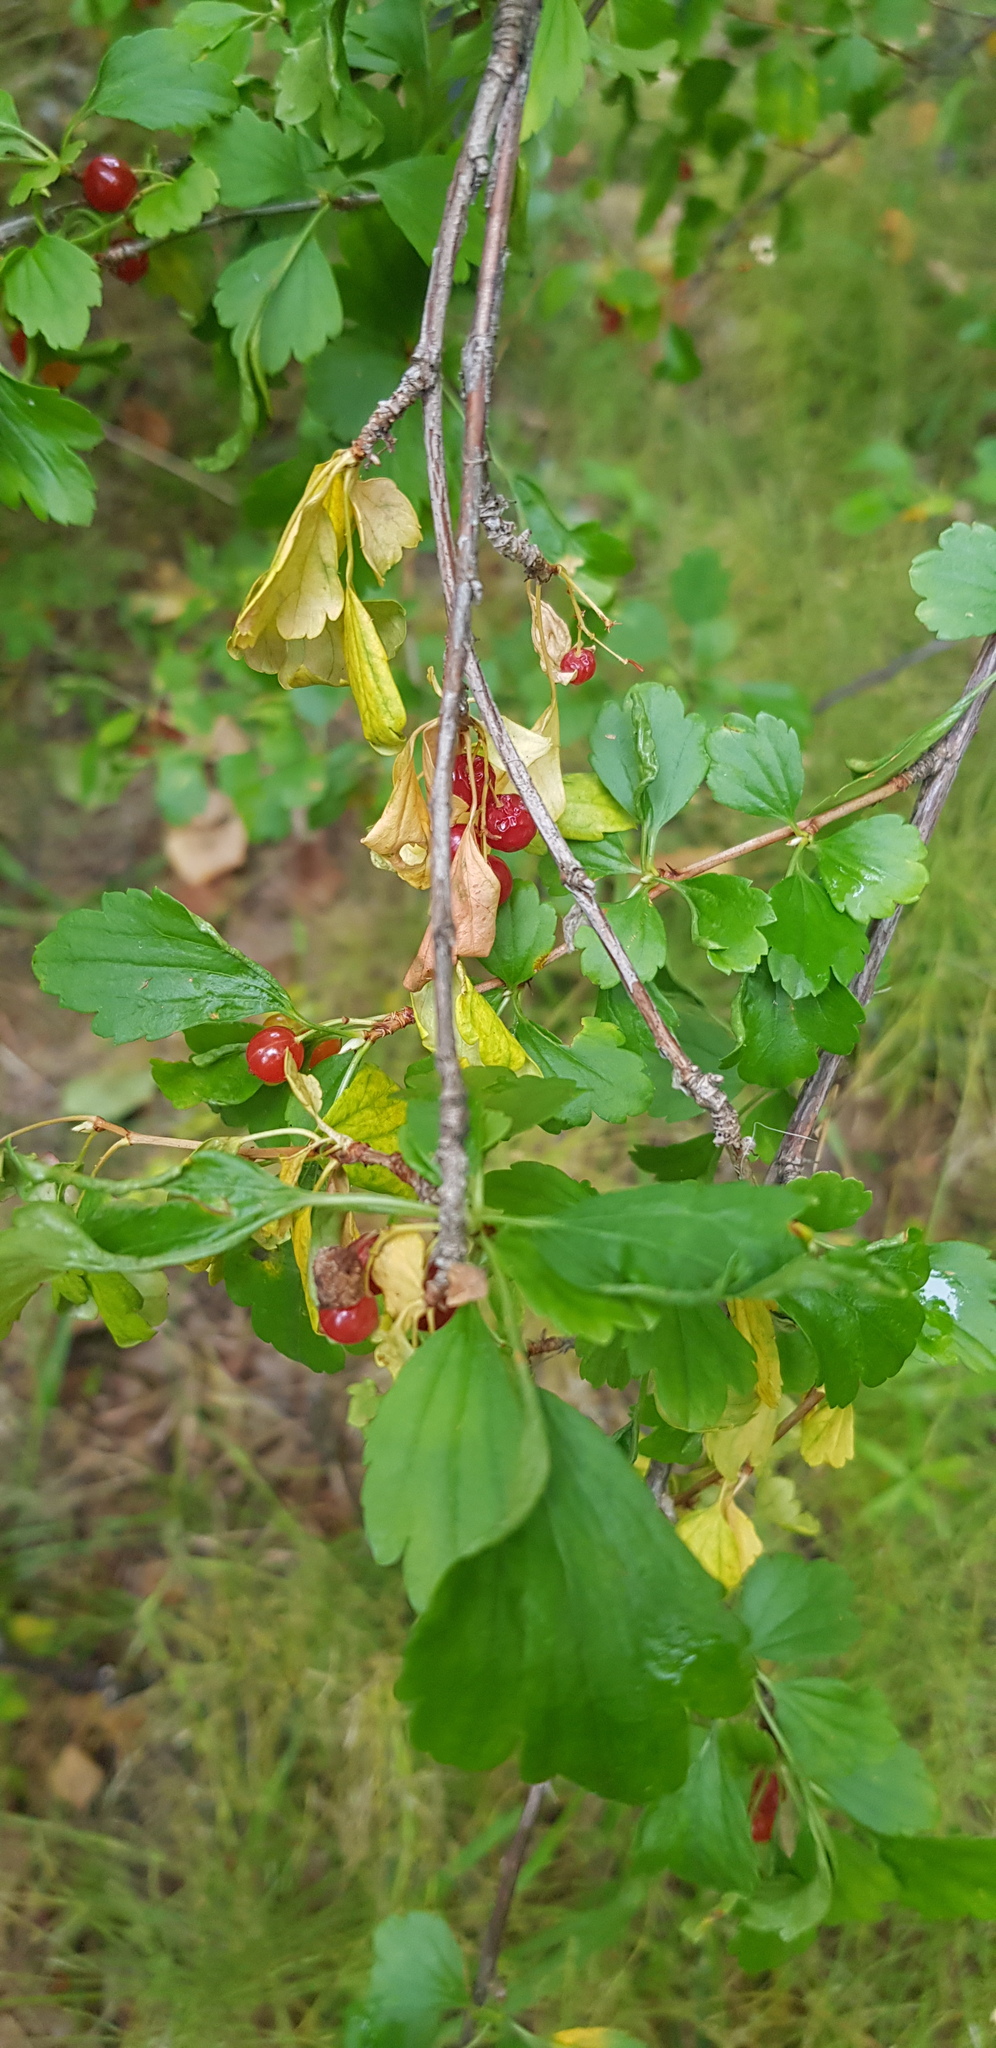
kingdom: Plantae
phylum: Tracheophyta
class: Magnoliopsida
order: Saxifragales
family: Grossulariaceae
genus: Ribes
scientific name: Ribes diacanthum
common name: Siberian currant
